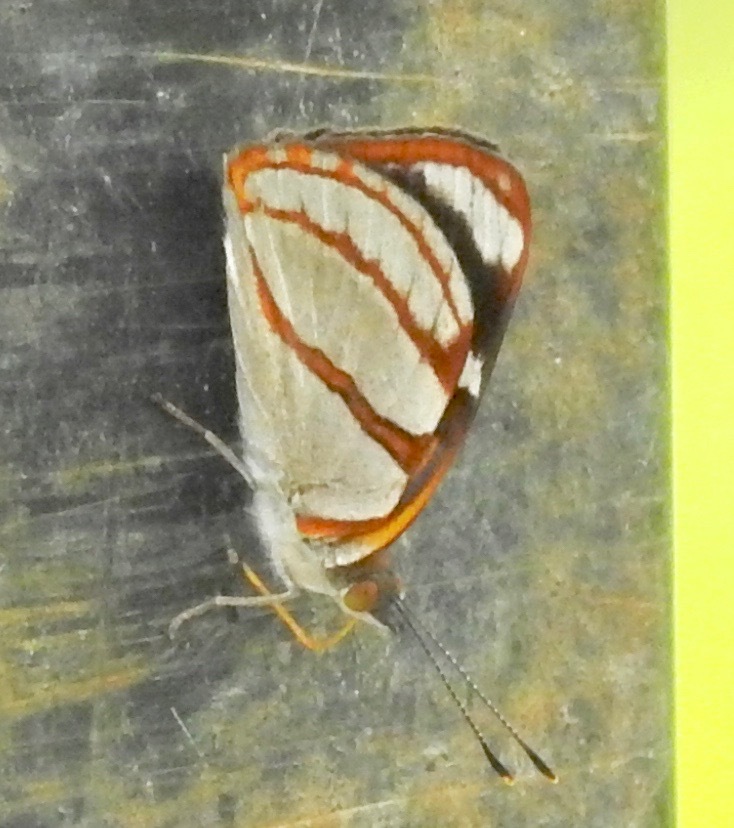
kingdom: Animalia
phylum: Arthropoda
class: Insecta
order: Lepidoptera
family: Nymphalidae
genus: Dynamine
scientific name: Dynamine tithia
